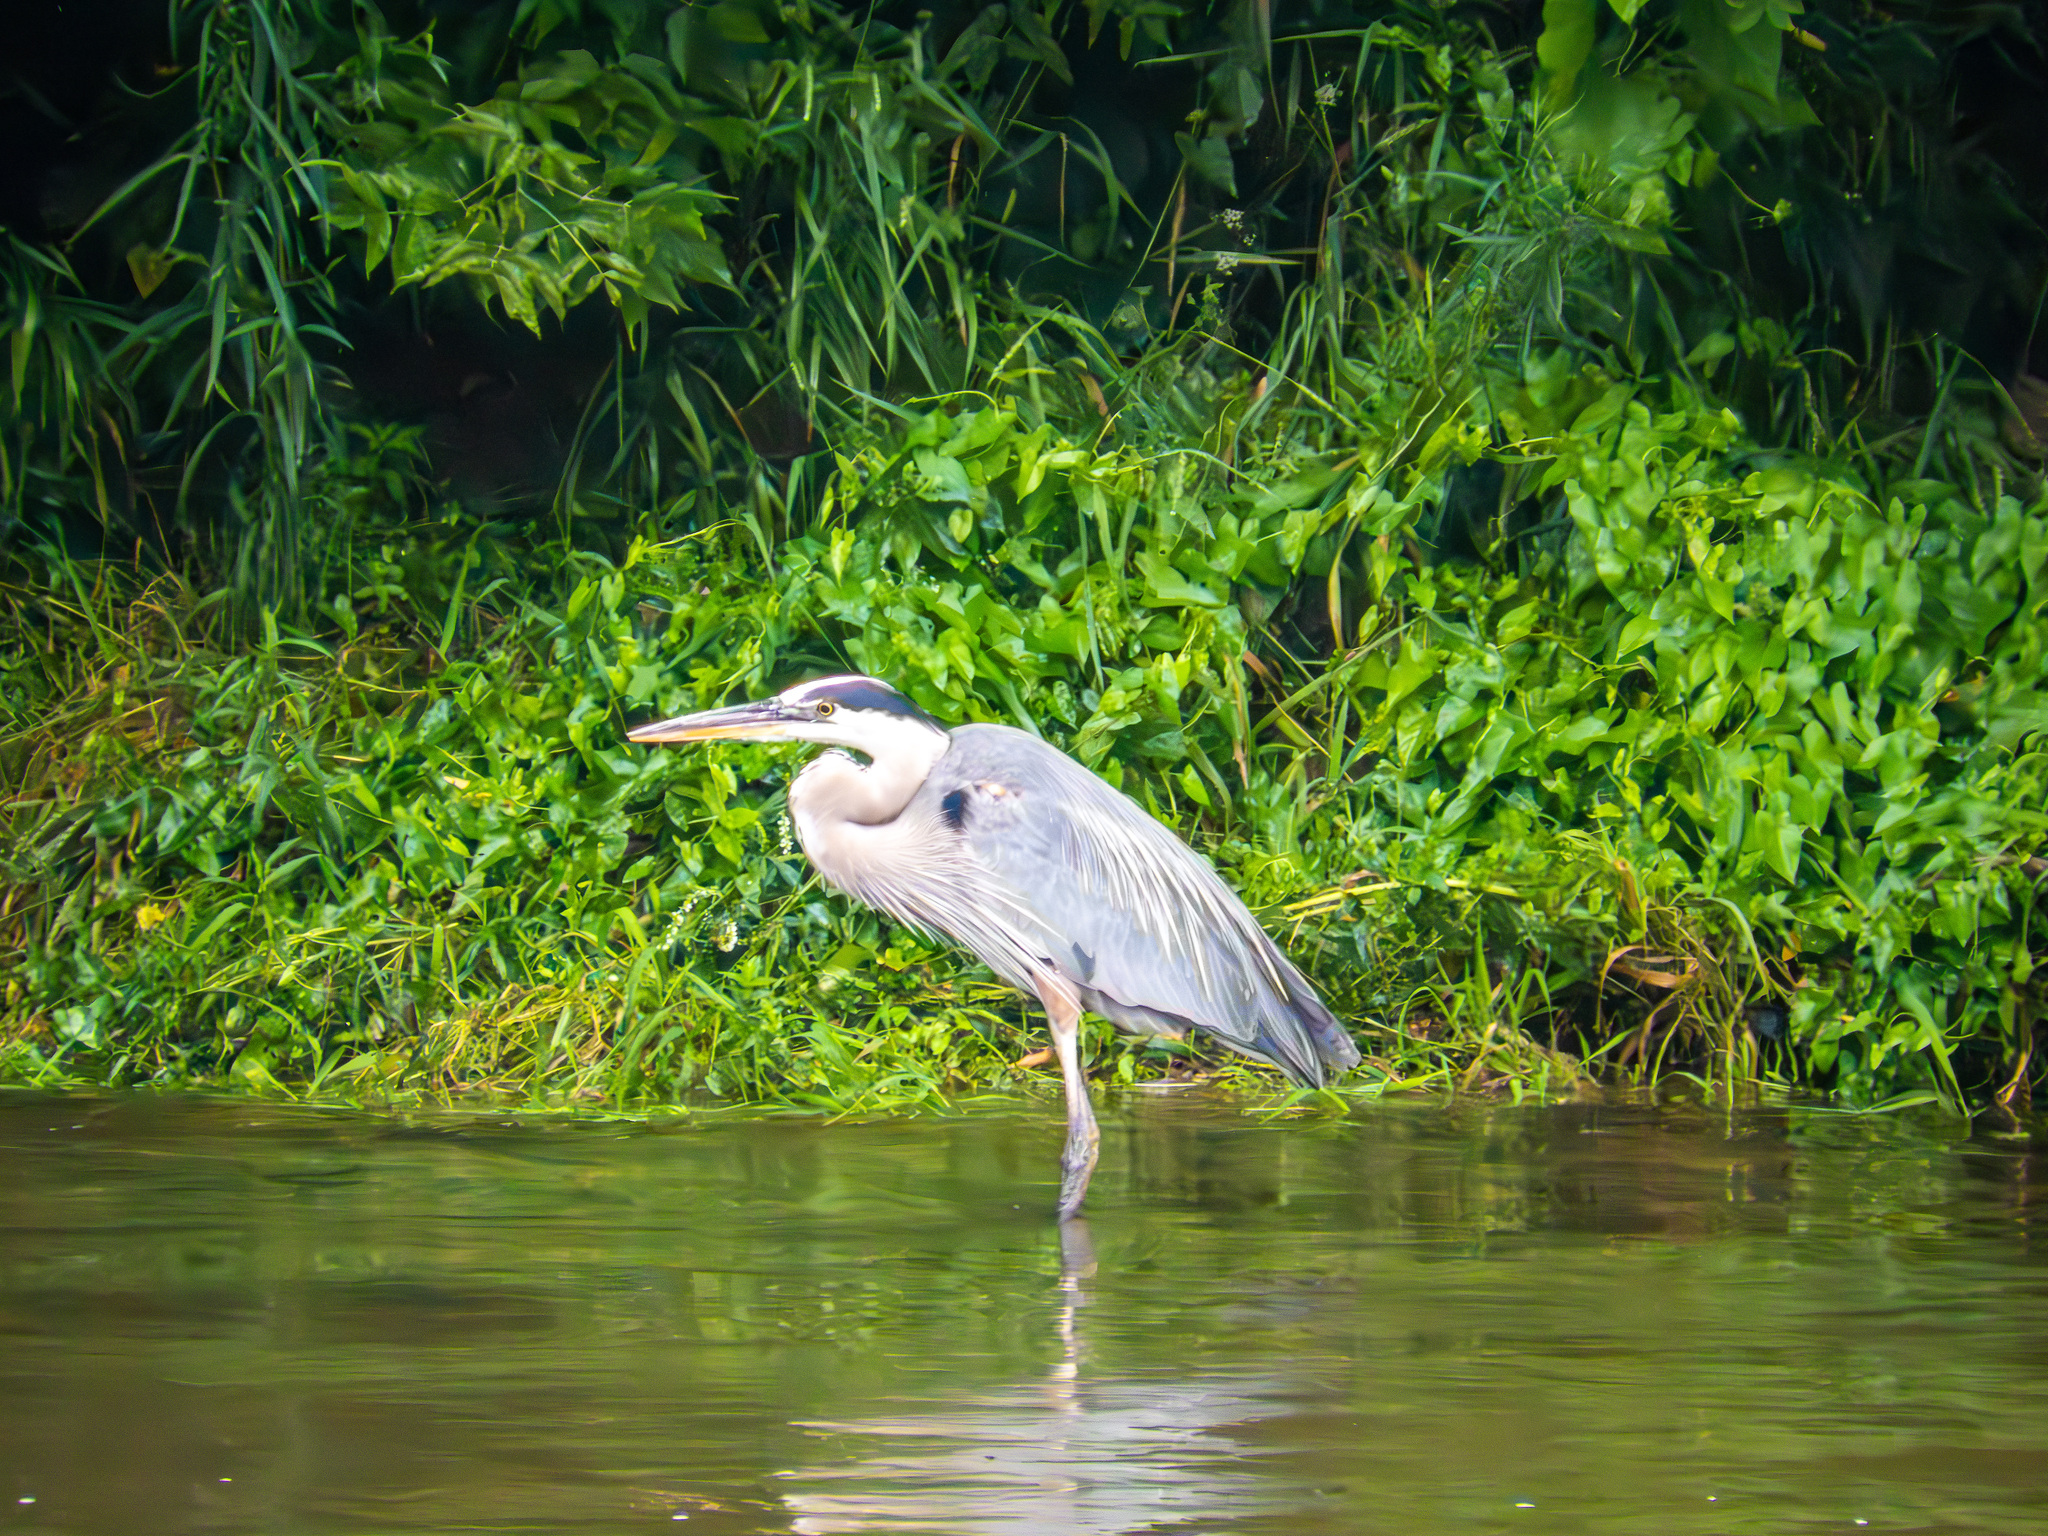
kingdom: Animalia
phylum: Chordata
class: Aves
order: Pelecaniformes
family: Ardeidae
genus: Ardea
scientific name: Ardea herodias
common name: Great blue heron
